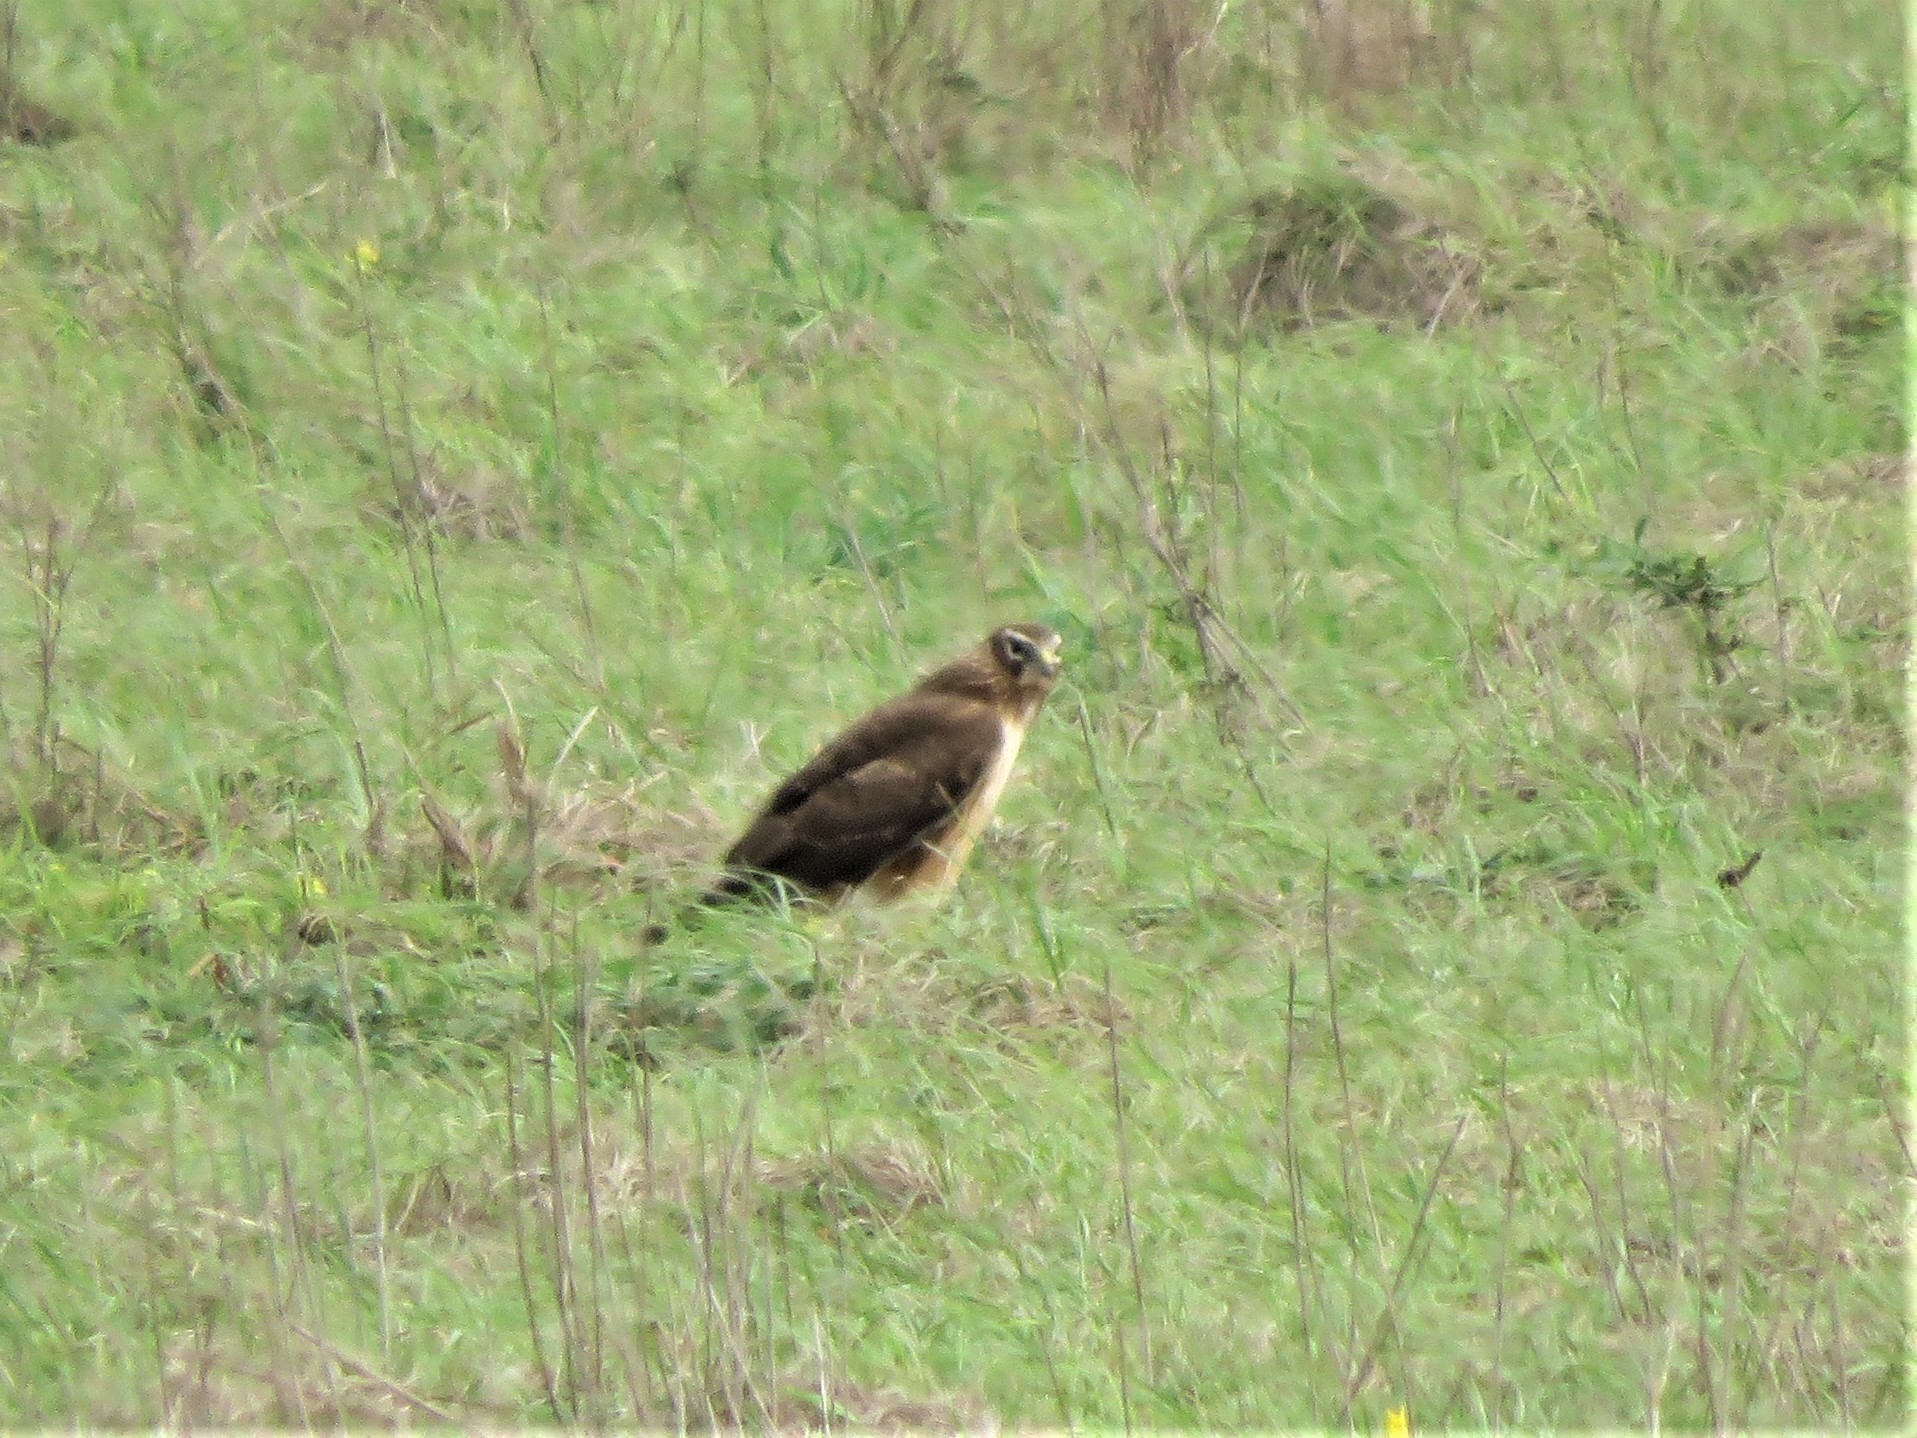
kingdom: Animalia
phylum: Chordata
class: Aves
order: Accipitriformes
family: Accipitridae
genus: Circus
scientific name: Circus cyaneus
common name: Hen harrier
